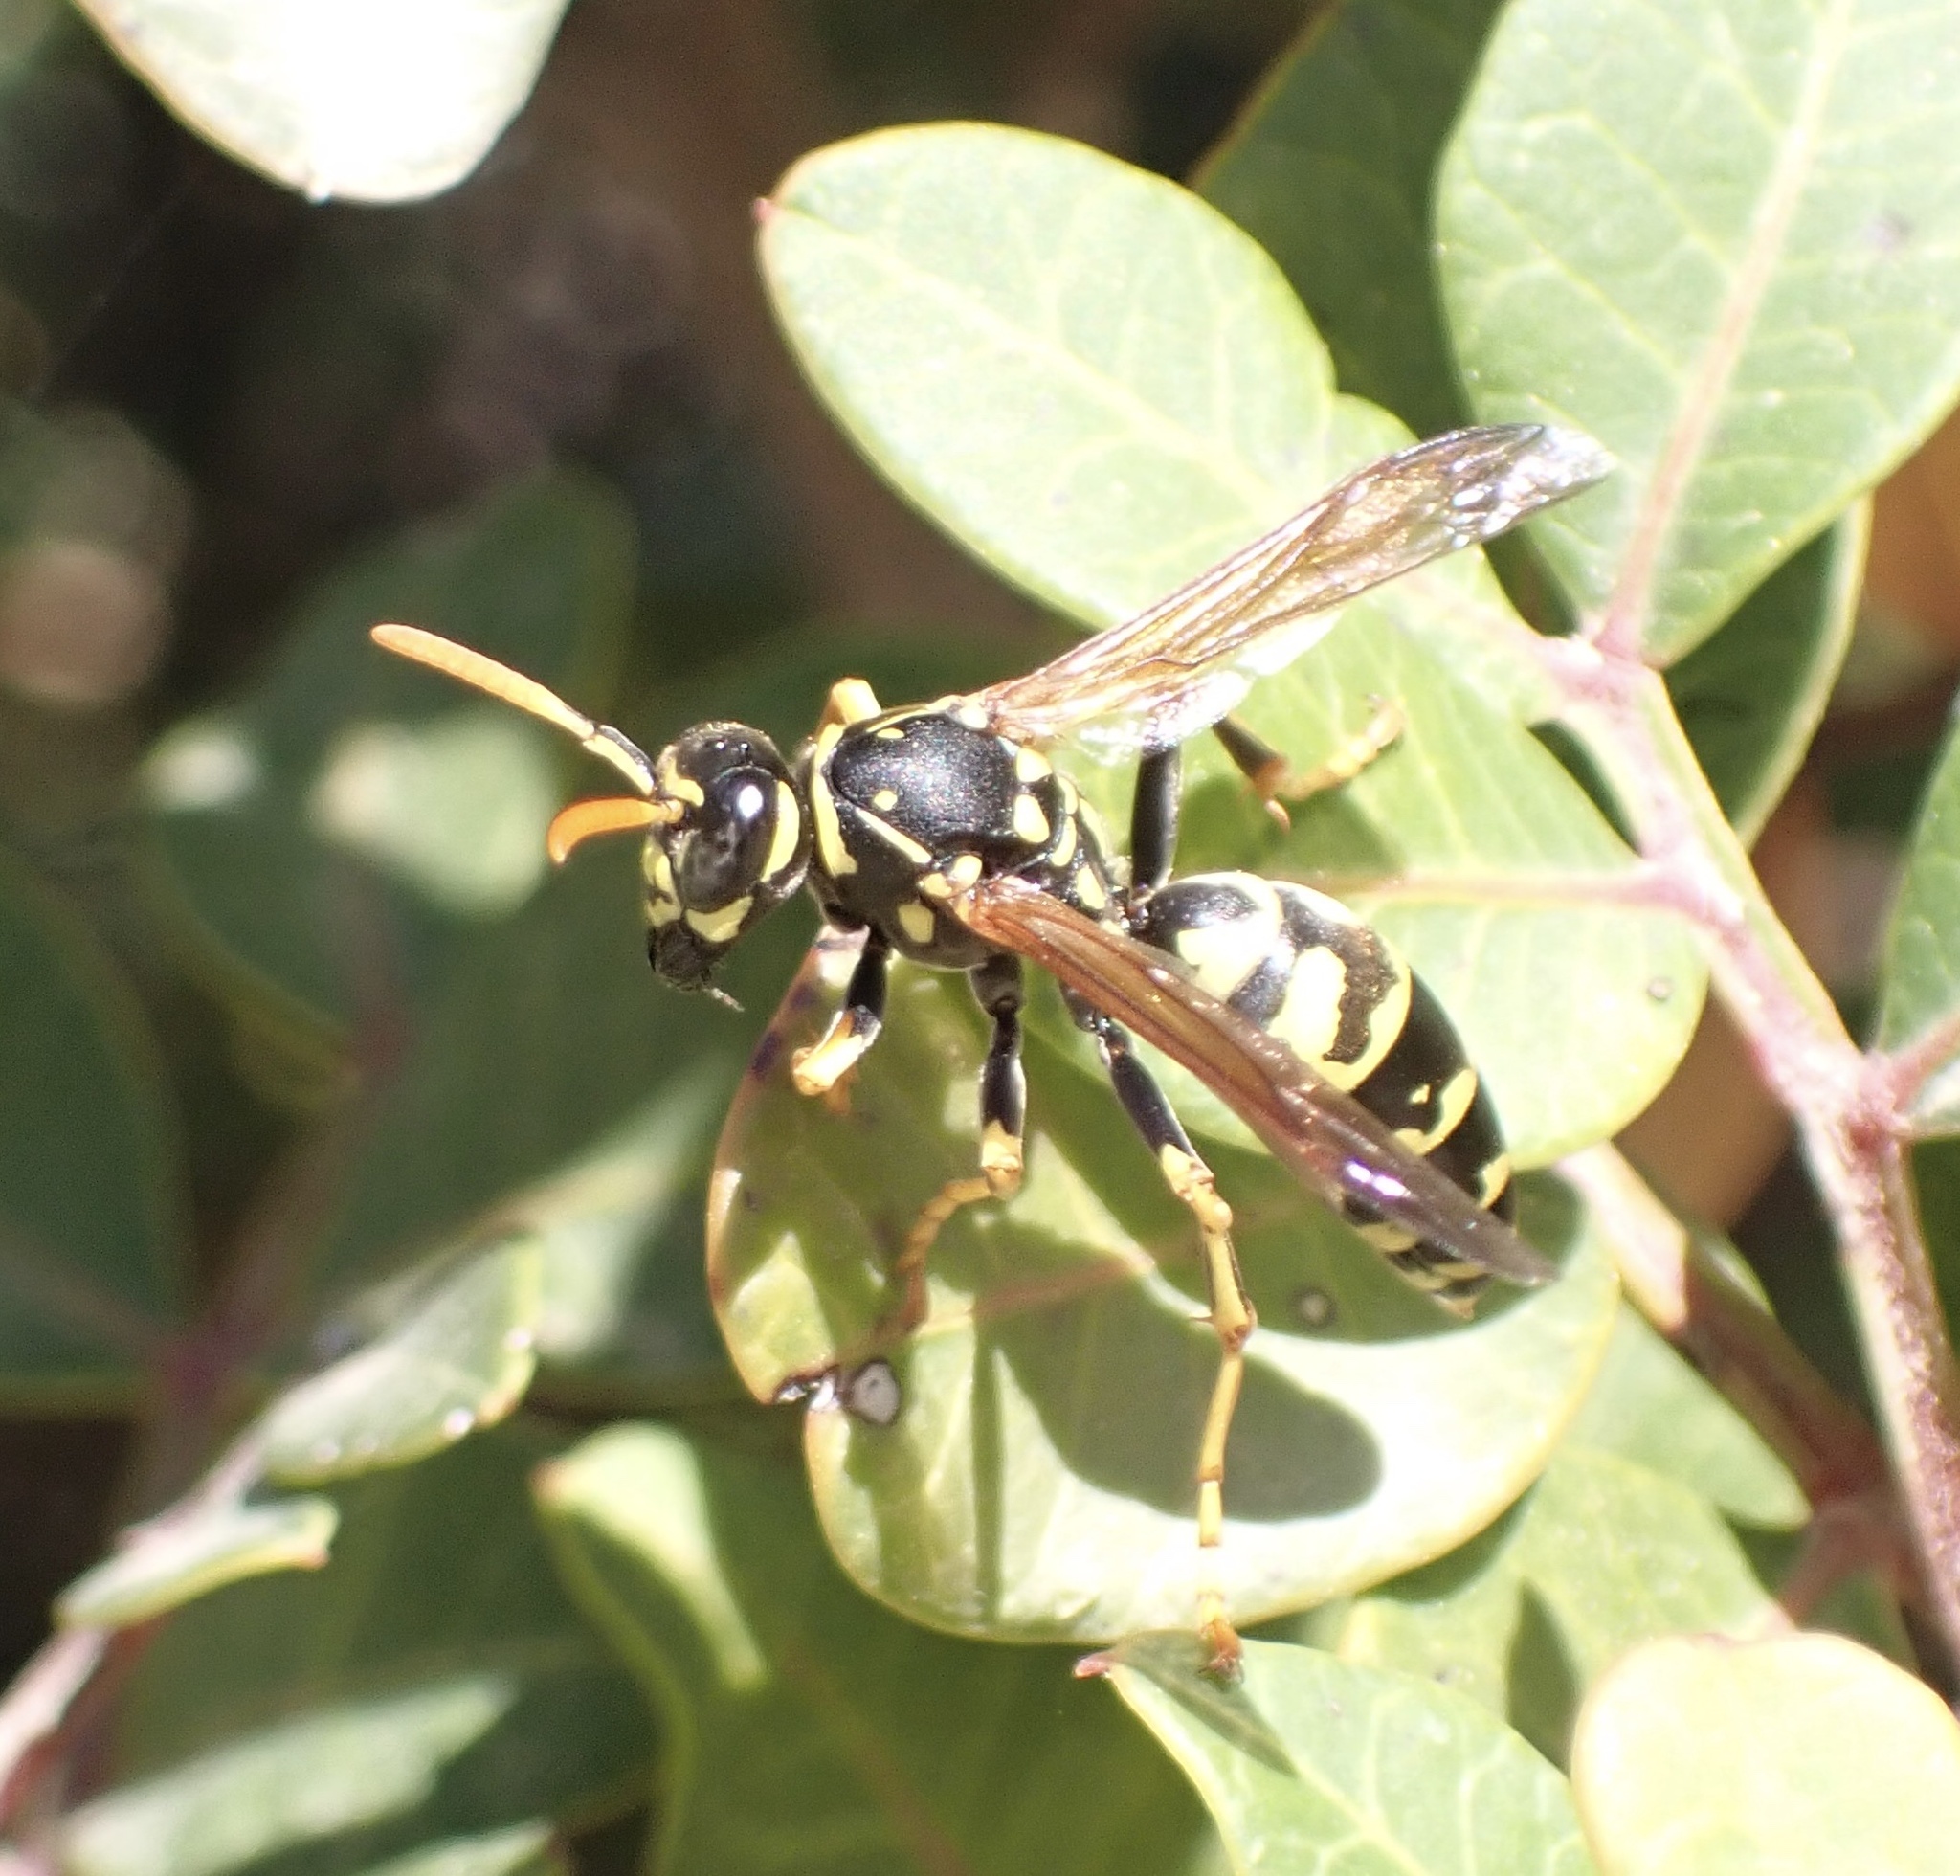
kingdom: Animalia
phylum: Arthropoda
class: Insecta
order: Hymenoptera
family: Eumenidae
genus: Polistes
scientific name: Polistes dominula
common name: Paper wasp
